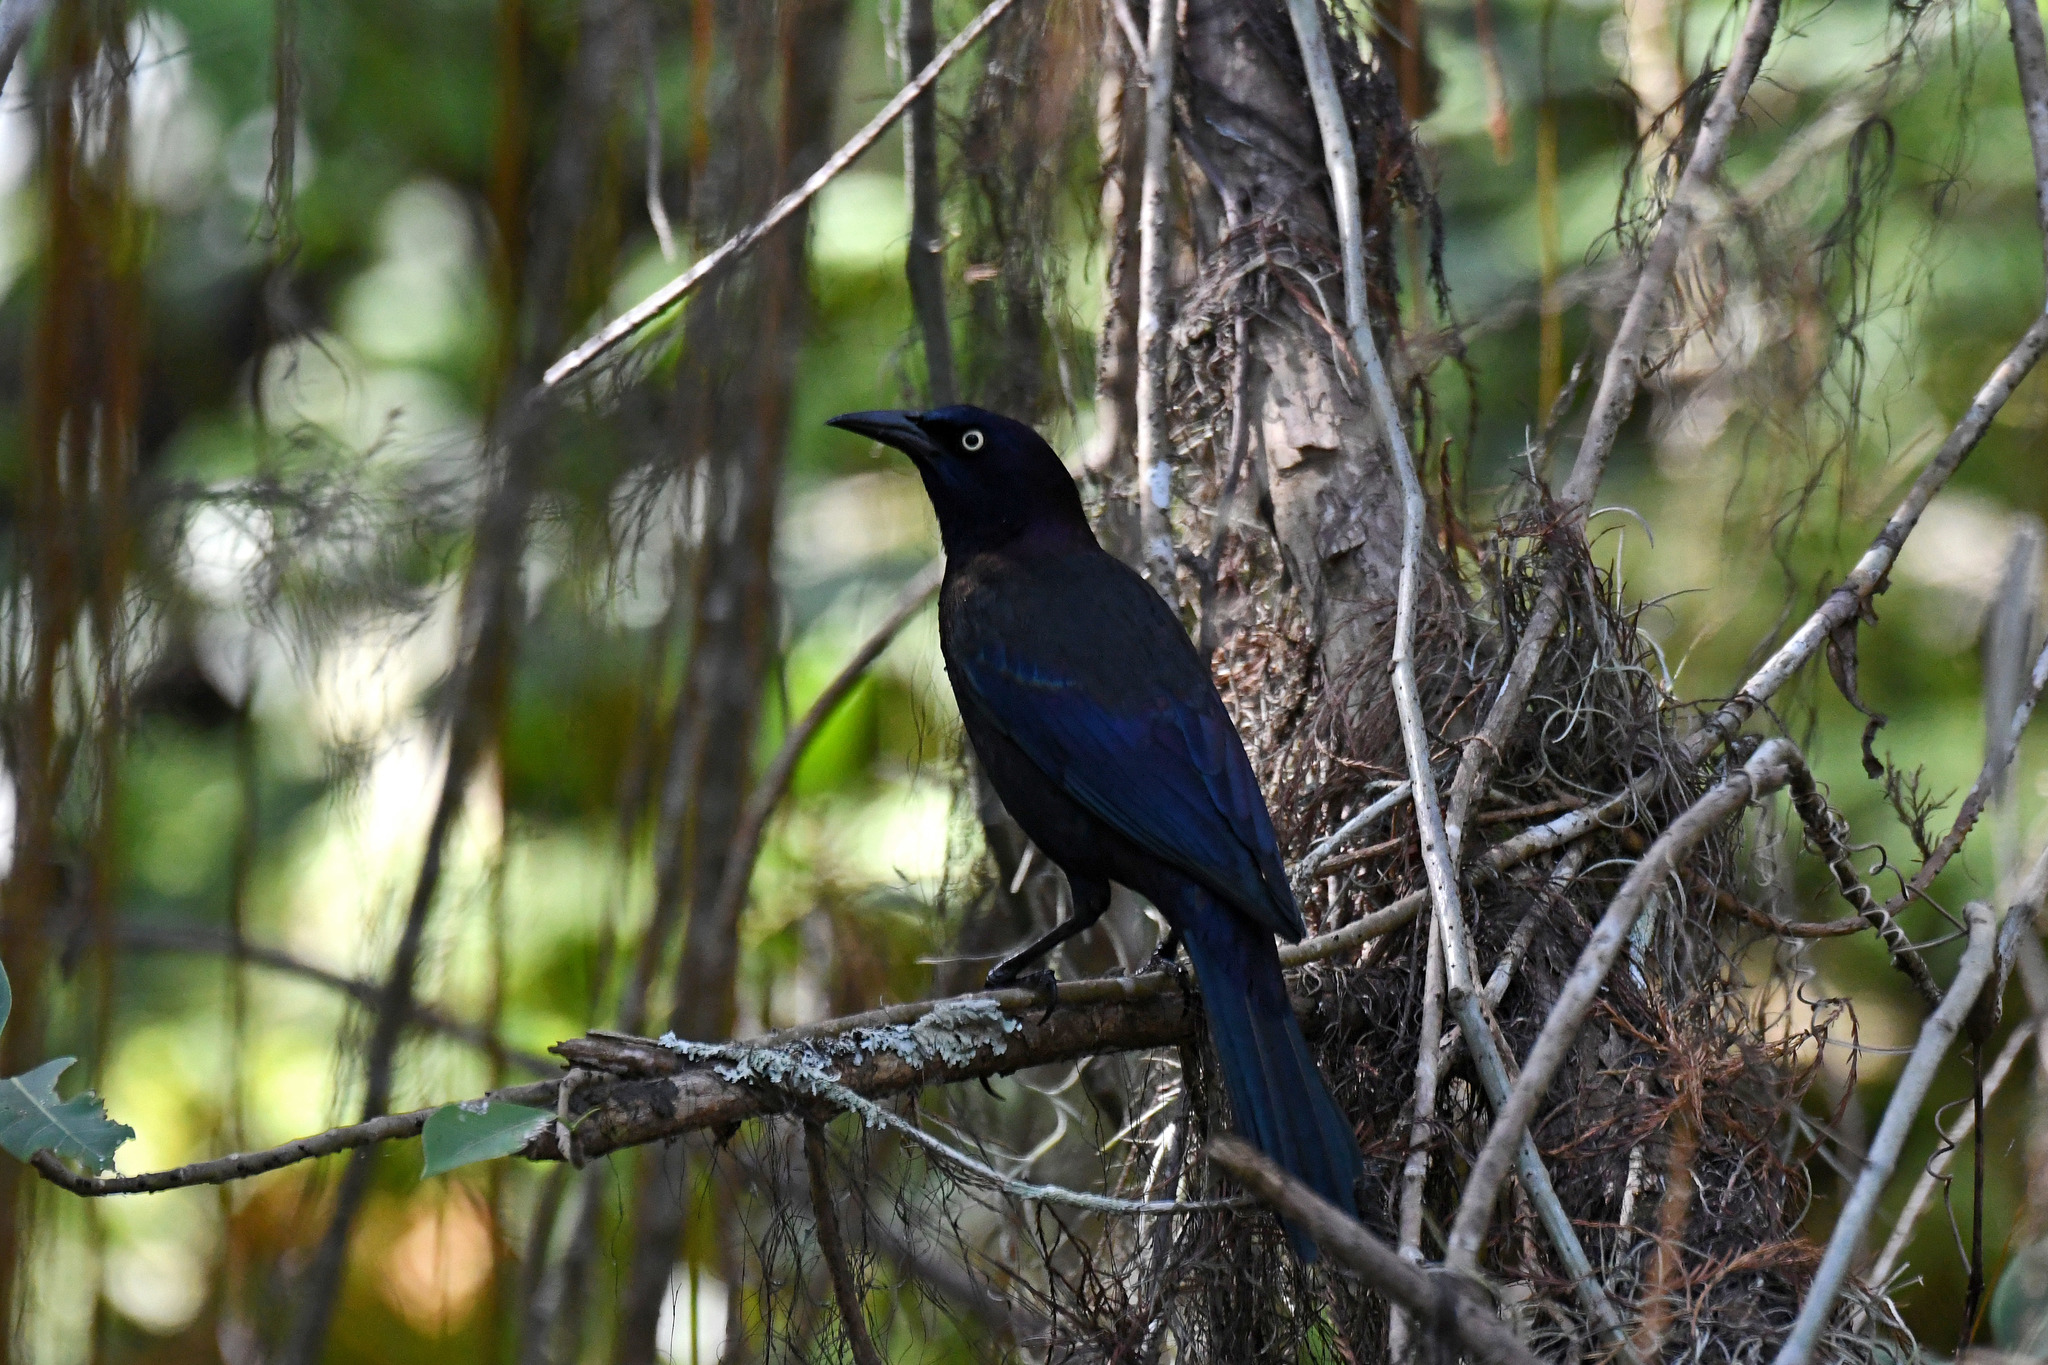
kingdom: Animalia
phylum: Chordata
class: Aves
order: Passeriformes
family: Icteridae
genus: Quiscalus
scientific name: Quiscalus quiscula
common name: Common grackle
